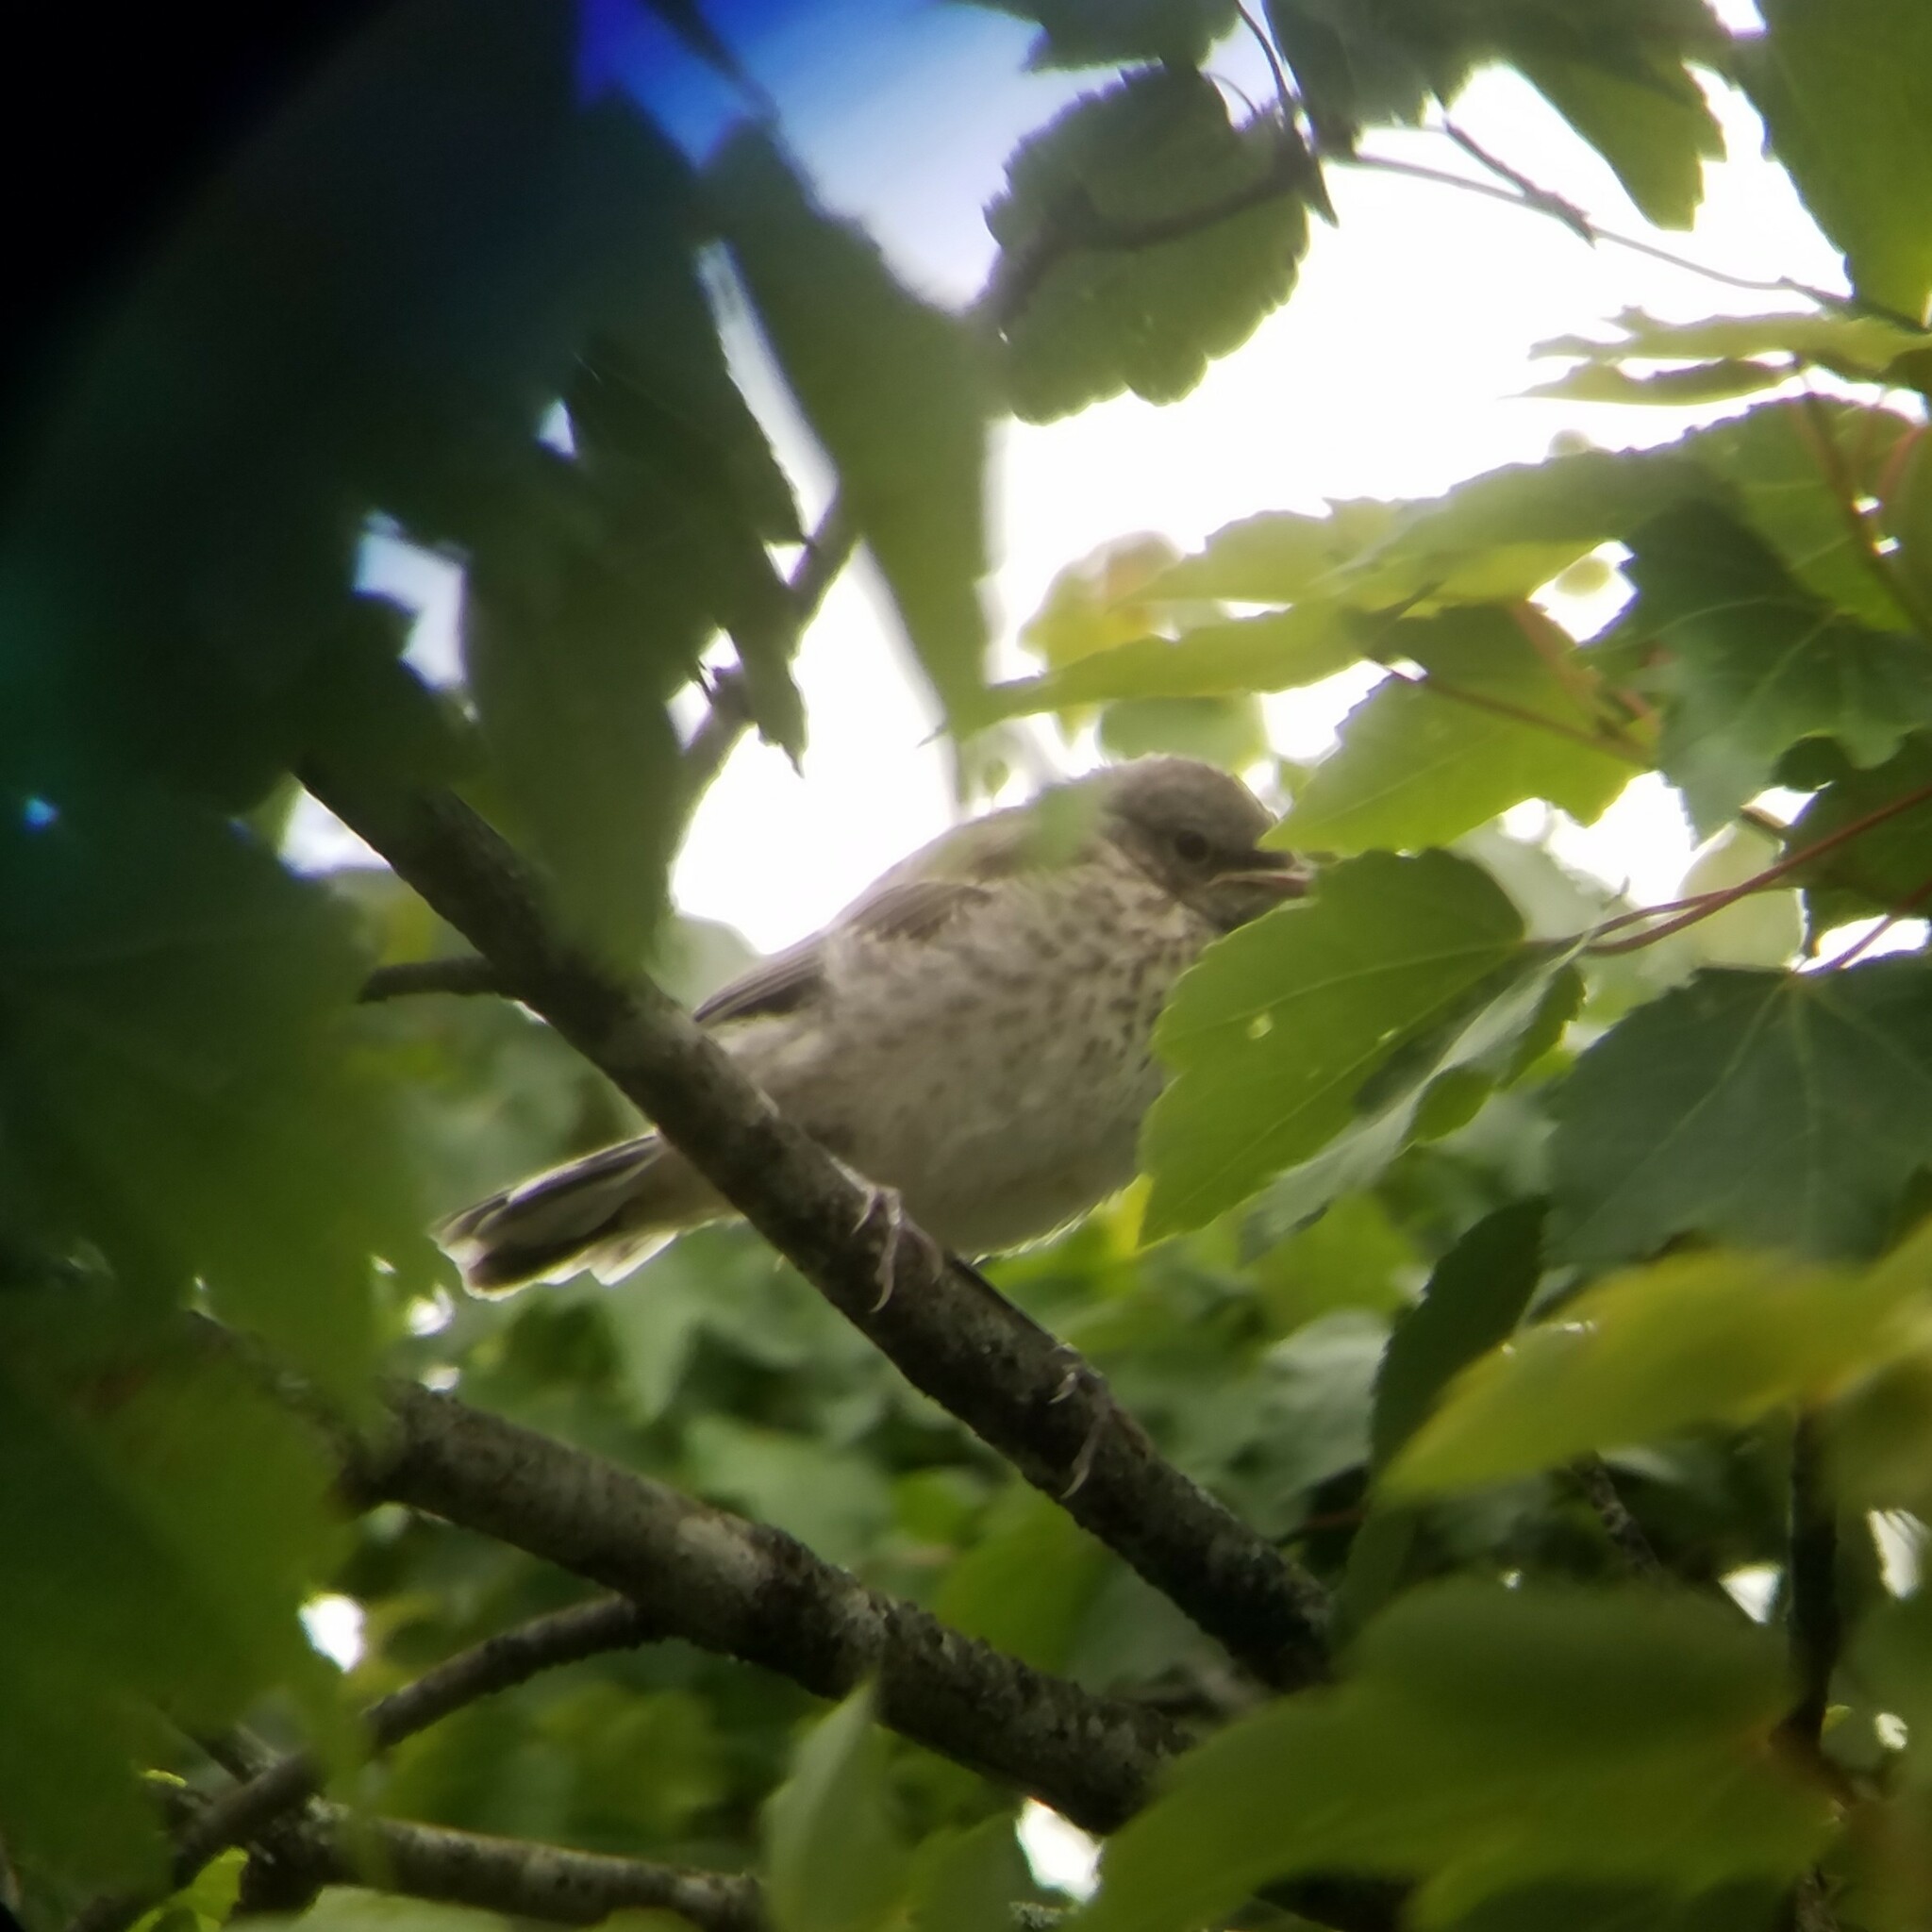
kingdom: Animalia
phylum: Chordata
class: Aves
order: Passeriformes
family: Mimidae
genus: Mimus
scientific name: Mimus polyglottos
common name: Northern mockingbird
